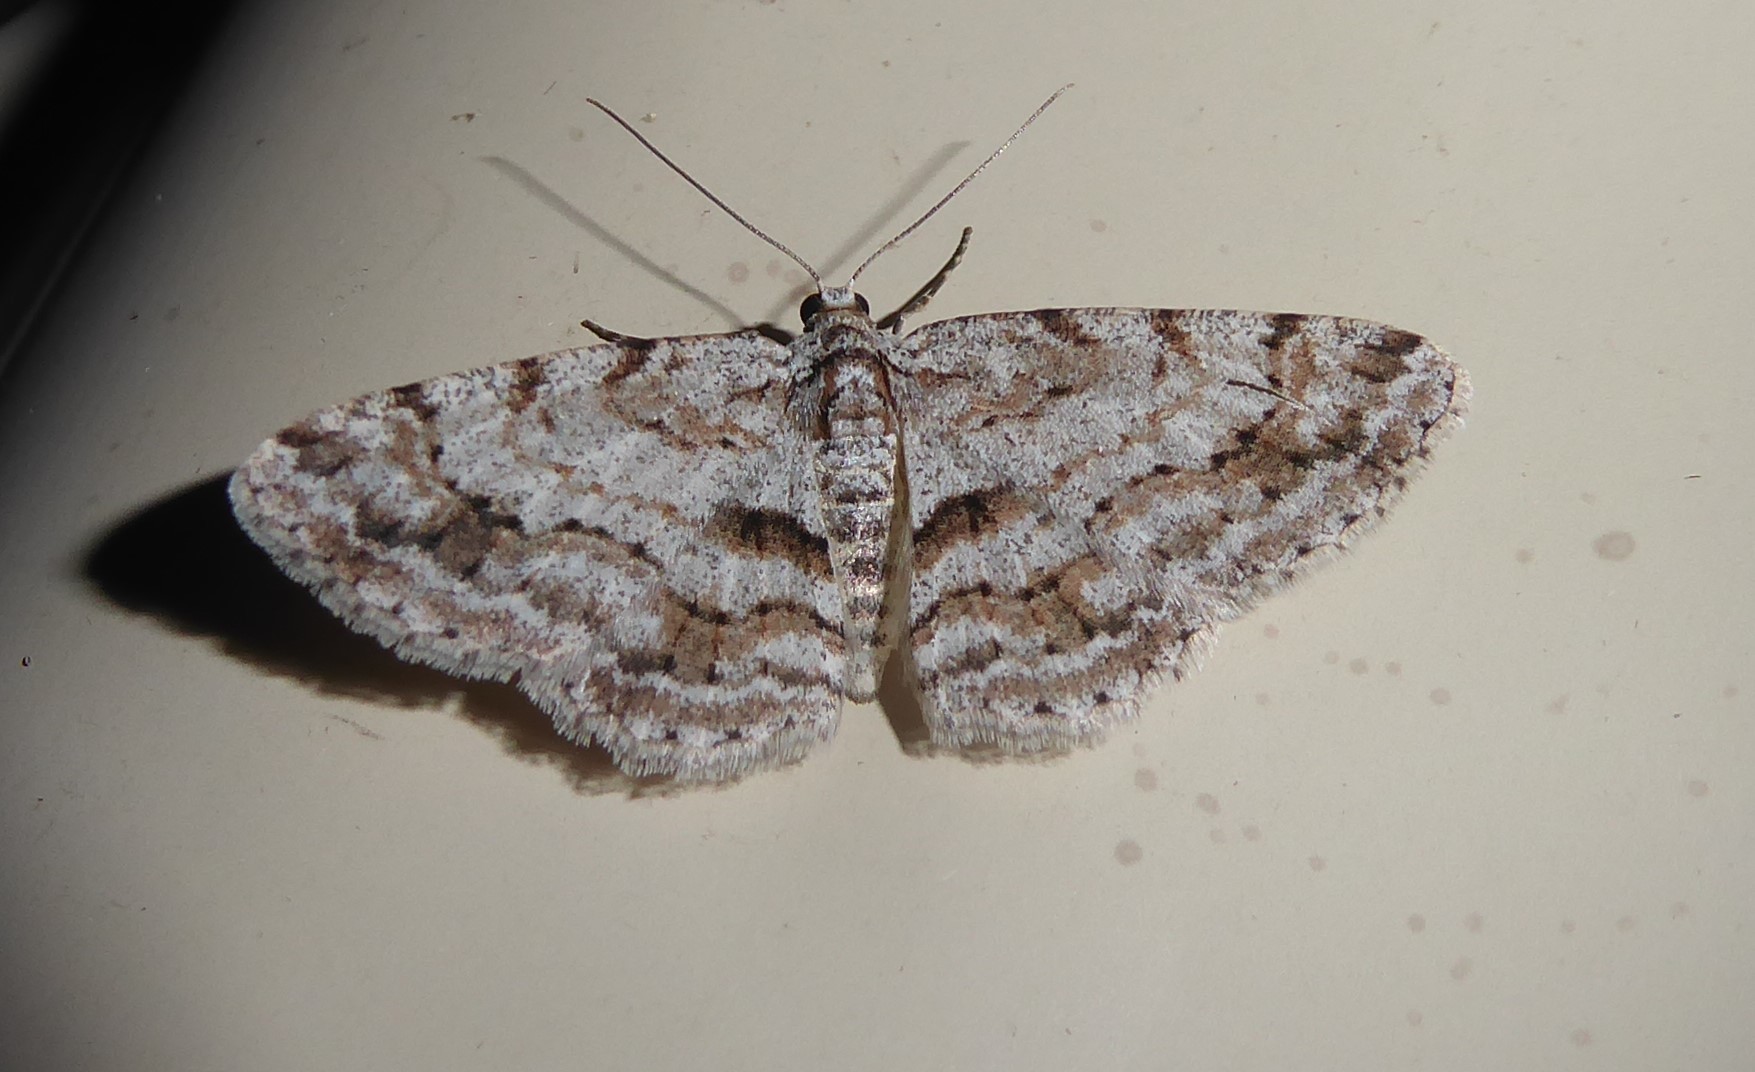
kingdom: Animalia
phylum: Arthropoda
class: Insecta
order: Lepidoptera
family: Geometridae
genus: Didymoctenia
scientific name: Didymoctenia exsuperata
